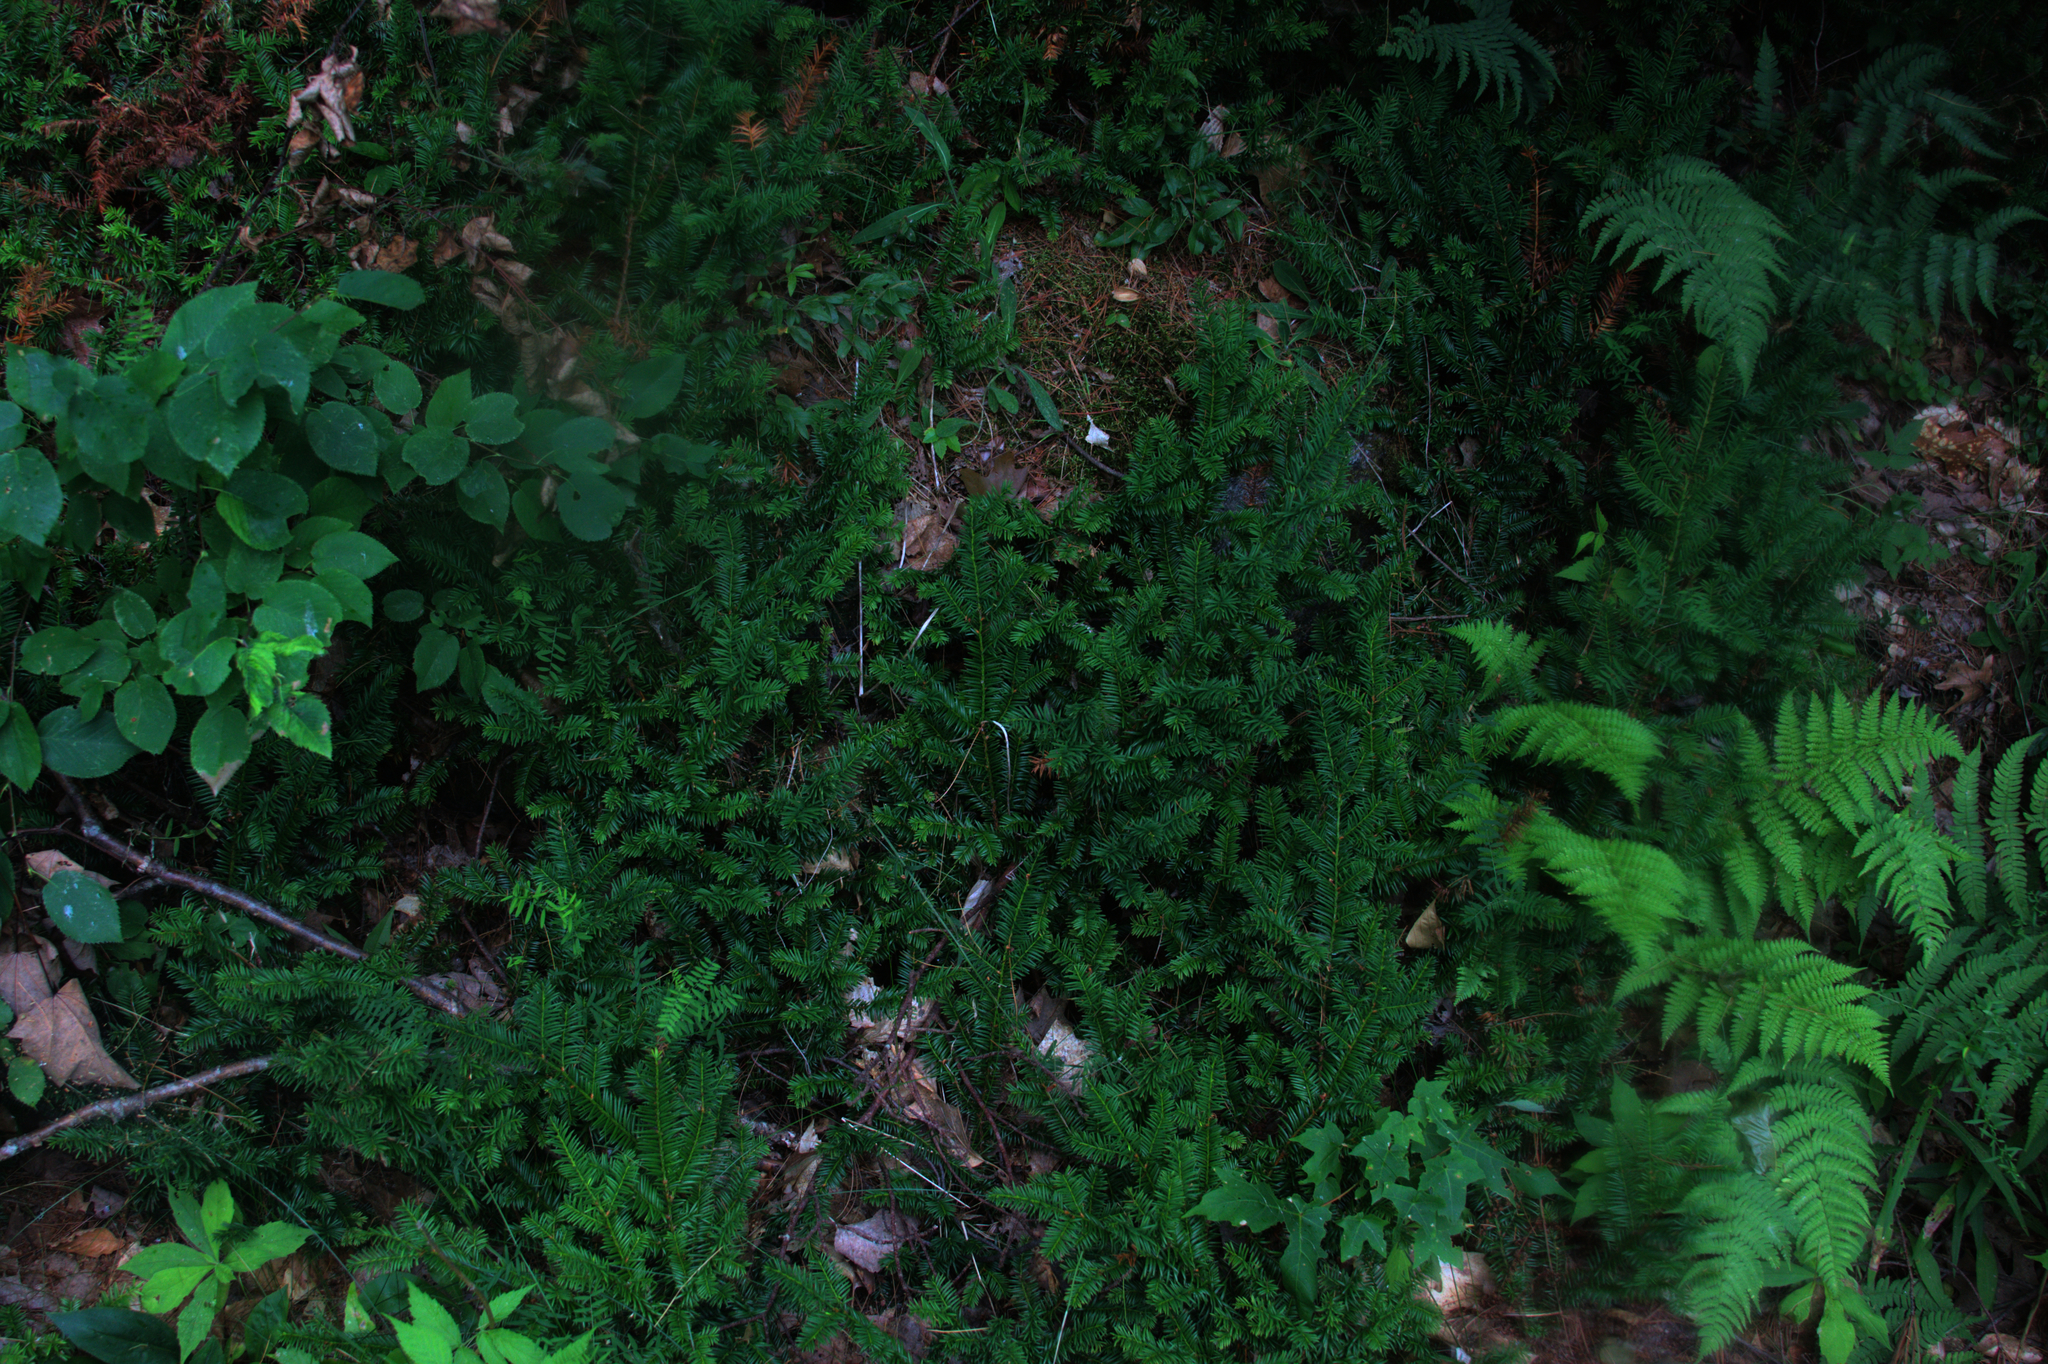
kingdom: Plantae
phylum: Tracheophyta
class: Pinopsida
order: Pinales
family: Taxaceae
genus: Taxus
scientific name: Taxus canadensis
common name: American yew
